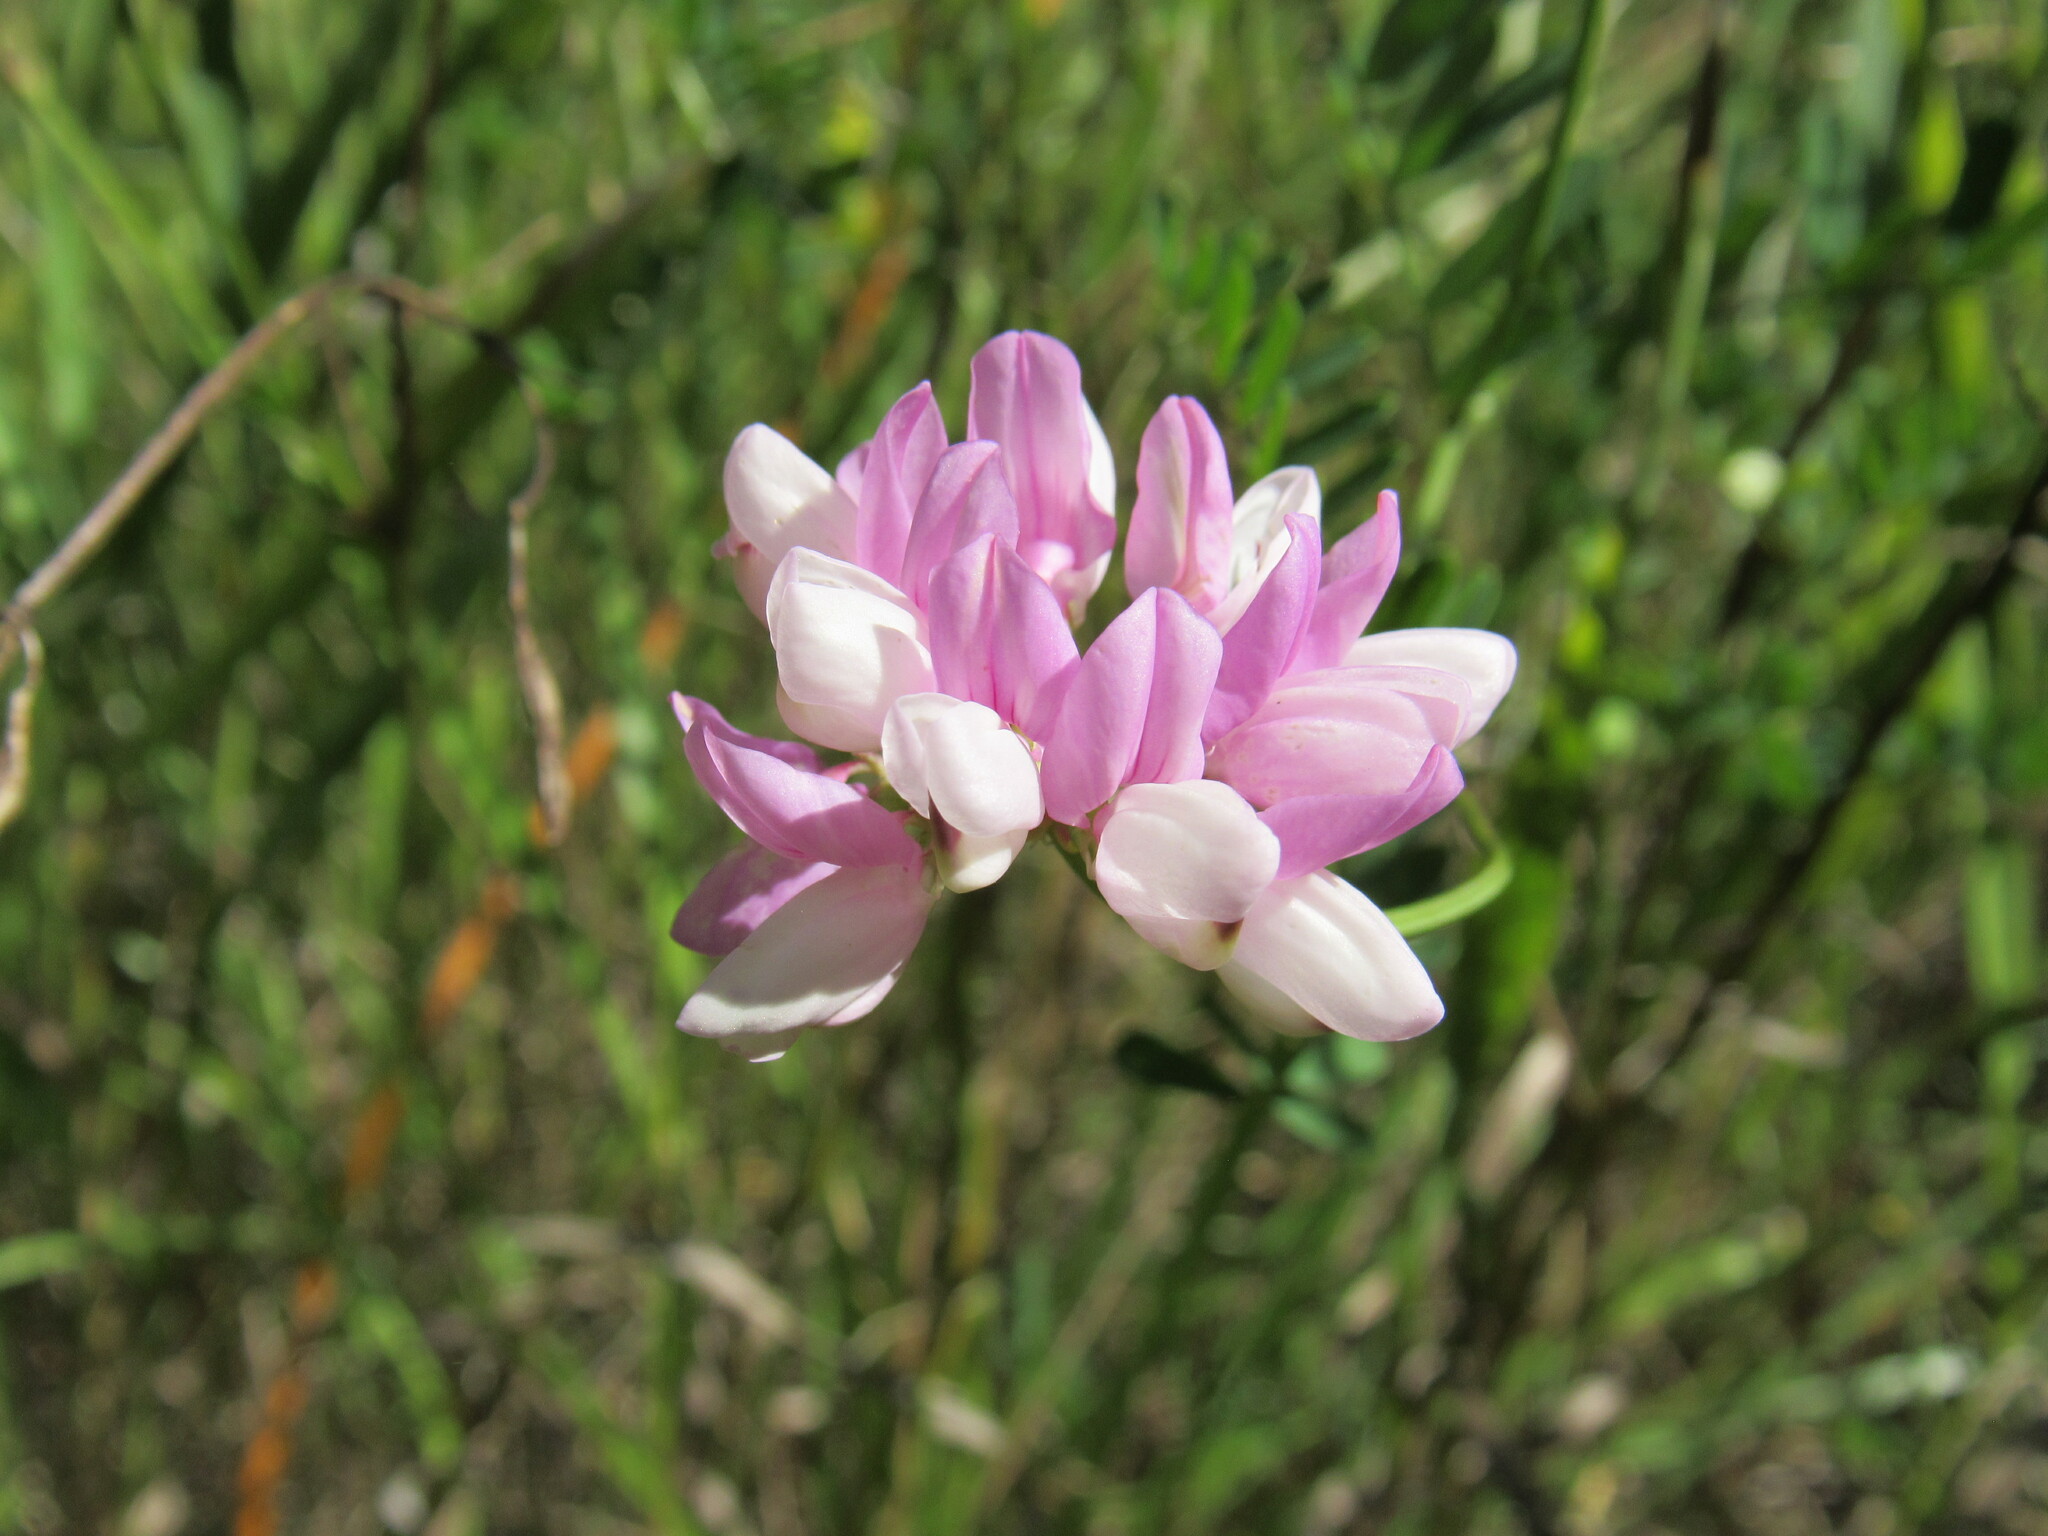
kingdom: Plantae
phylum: Tracheophyta
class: Magnoliopsida
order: Fabales
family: Fabaceae
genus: Coronilla
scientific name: Coronilla varia
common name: Crownvetch
